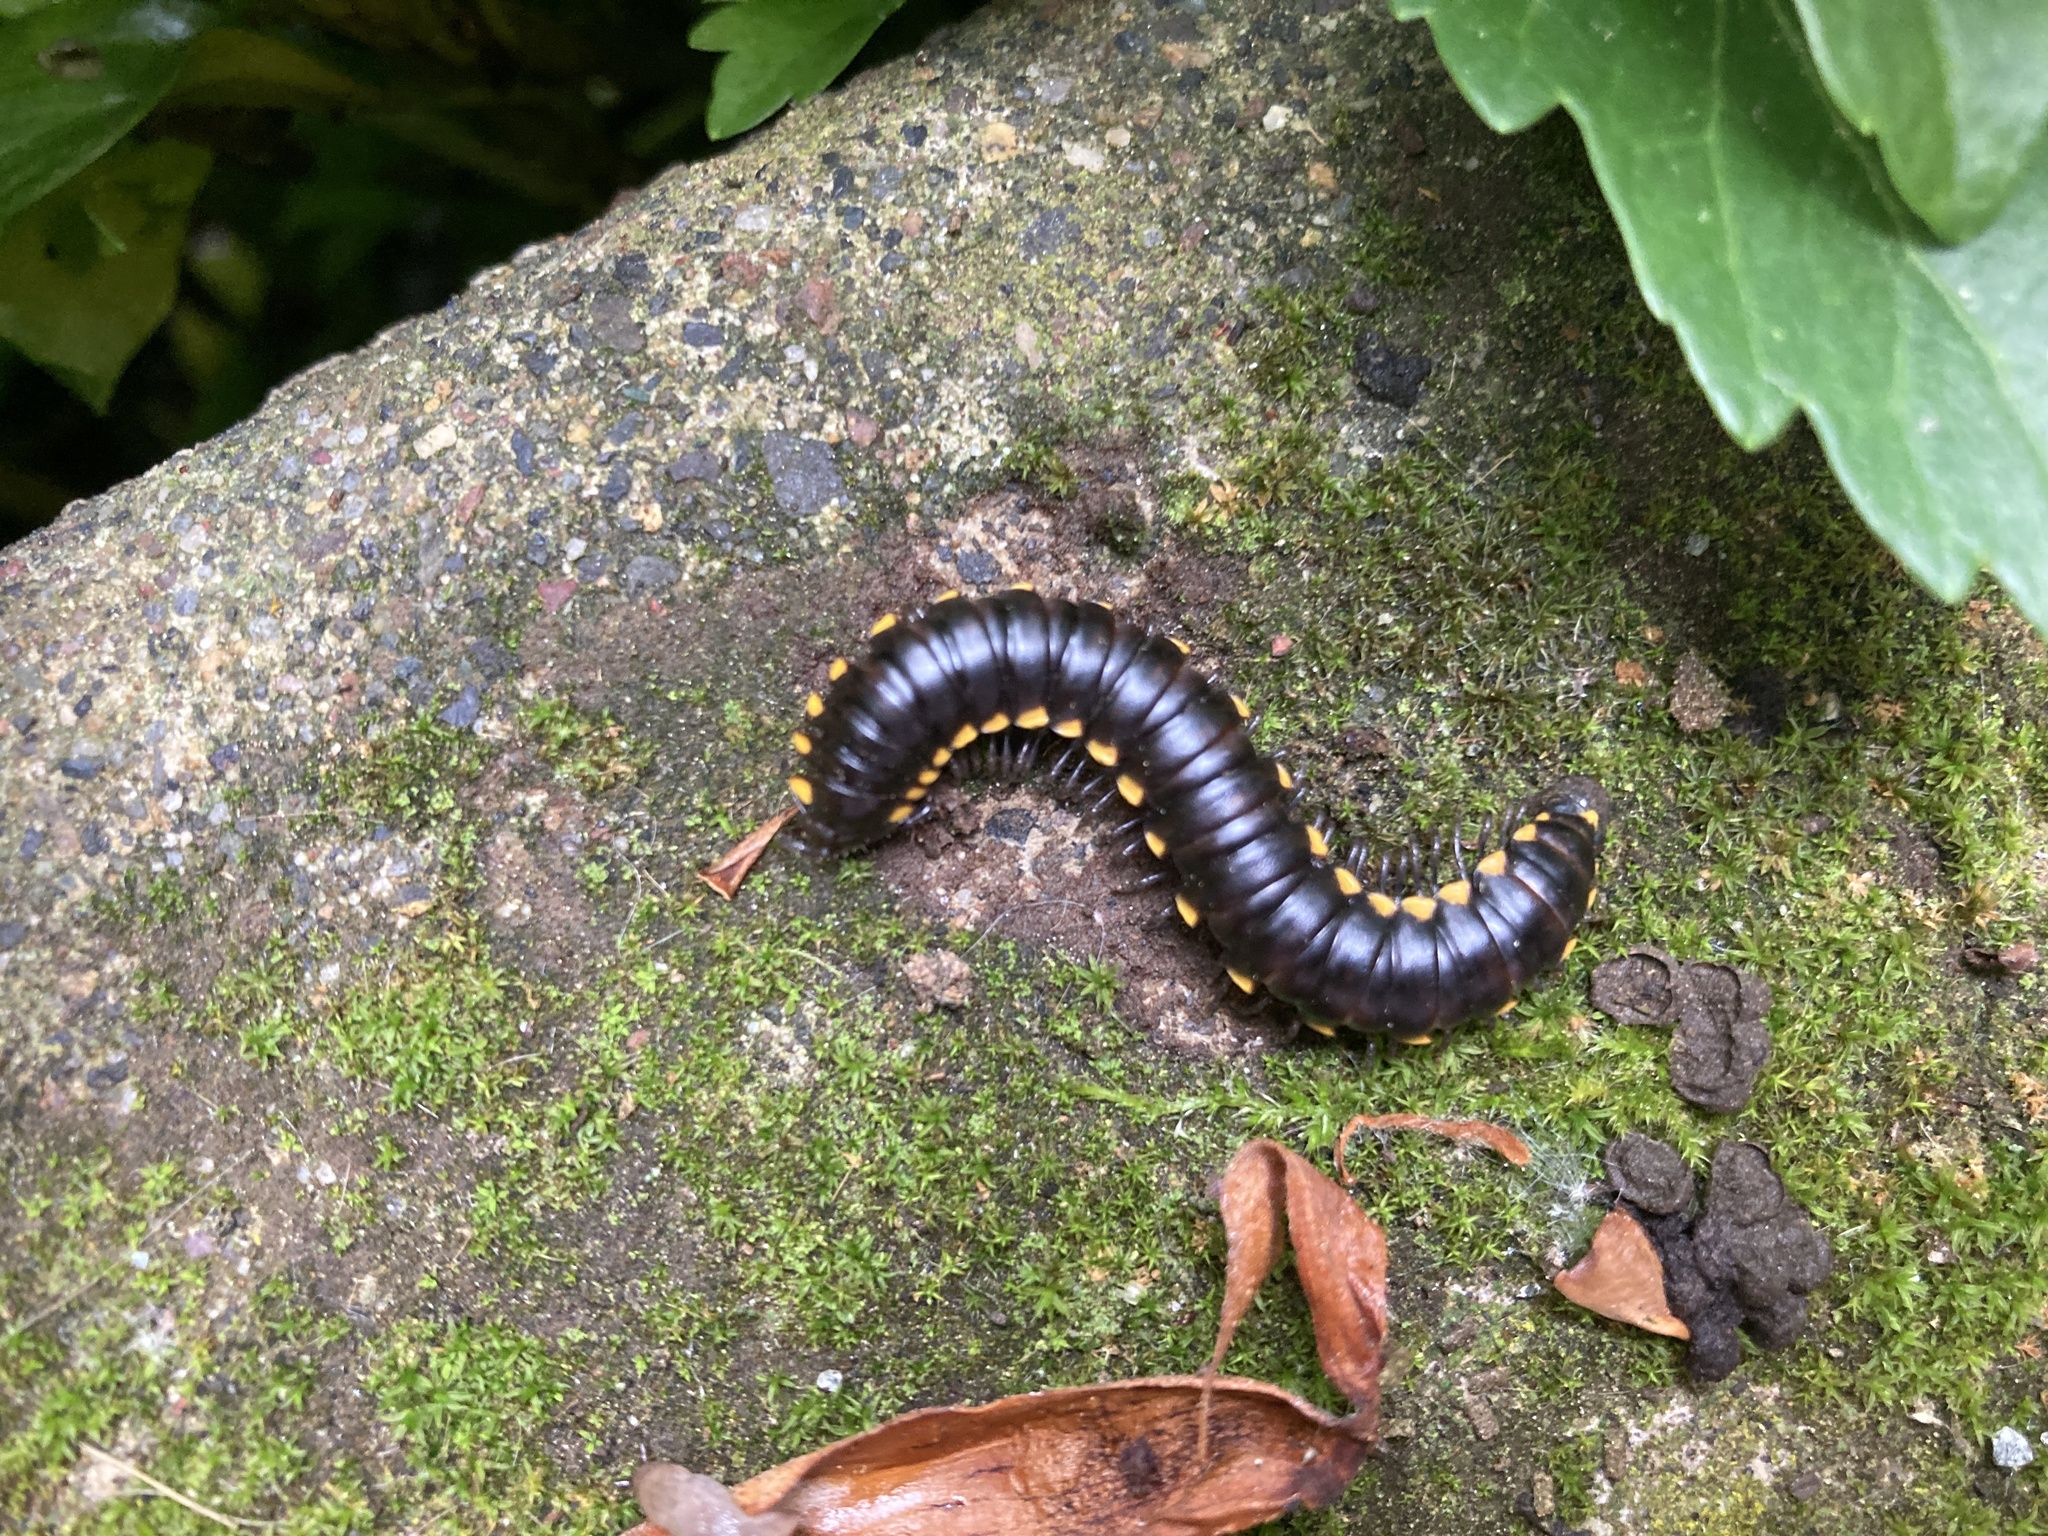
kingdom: Animalia
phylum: Arthropoda
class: Diplopoda
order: Polydesmida
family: Xystodesmidae
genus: Harpaphe
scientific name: Harpaphe haydeniana
